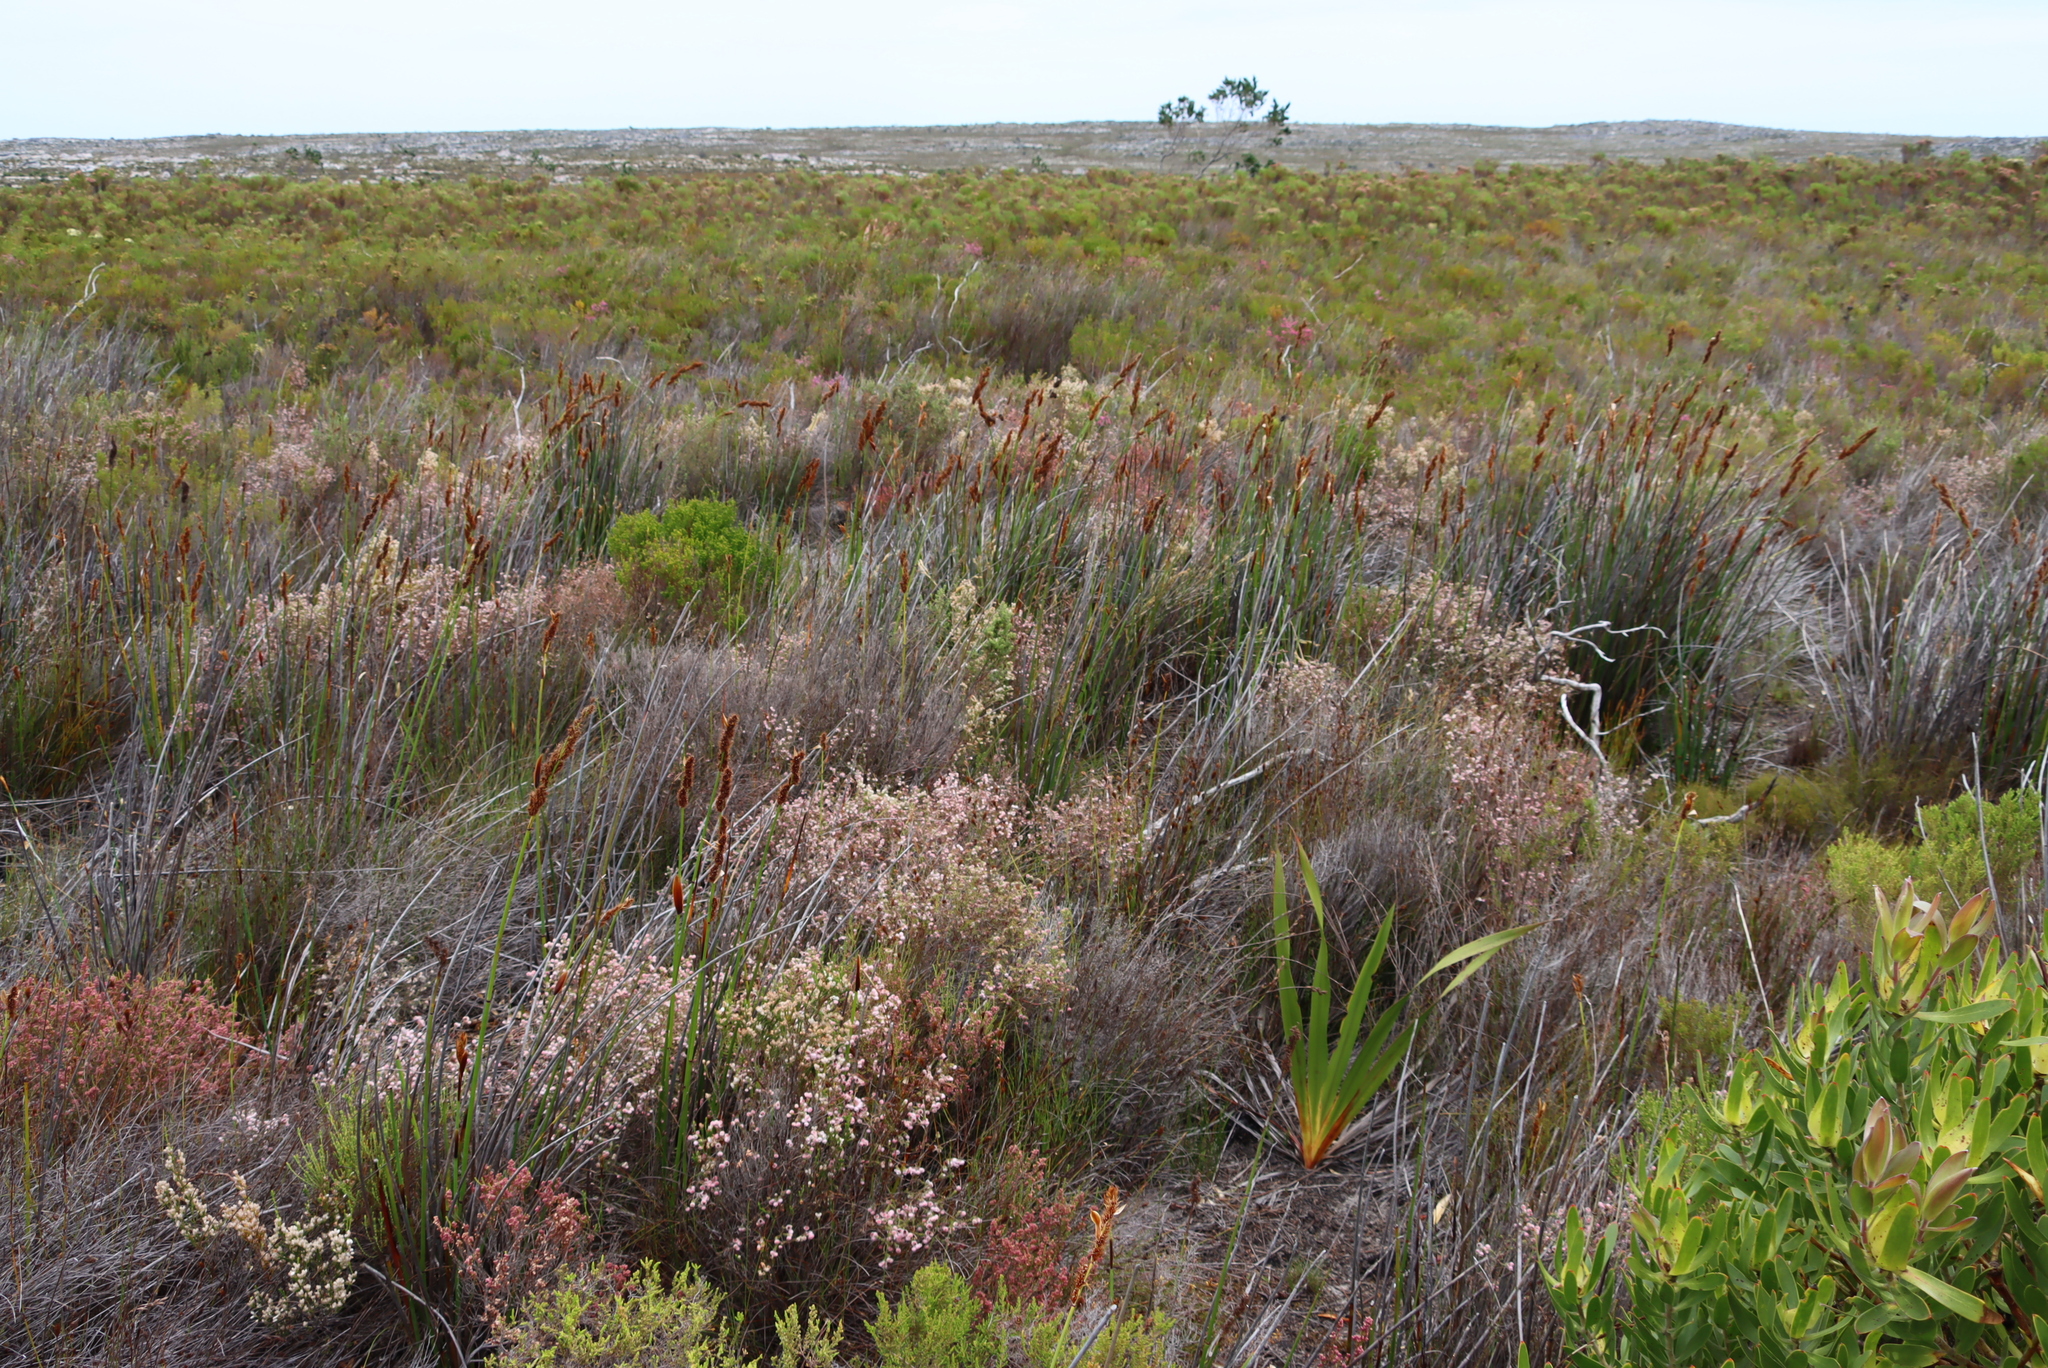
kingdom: Plantae
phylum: Tracheophyta
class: Magnoliopsida
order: Ericales
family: Ericaceae
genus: Erica
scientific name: Erica bruniades
